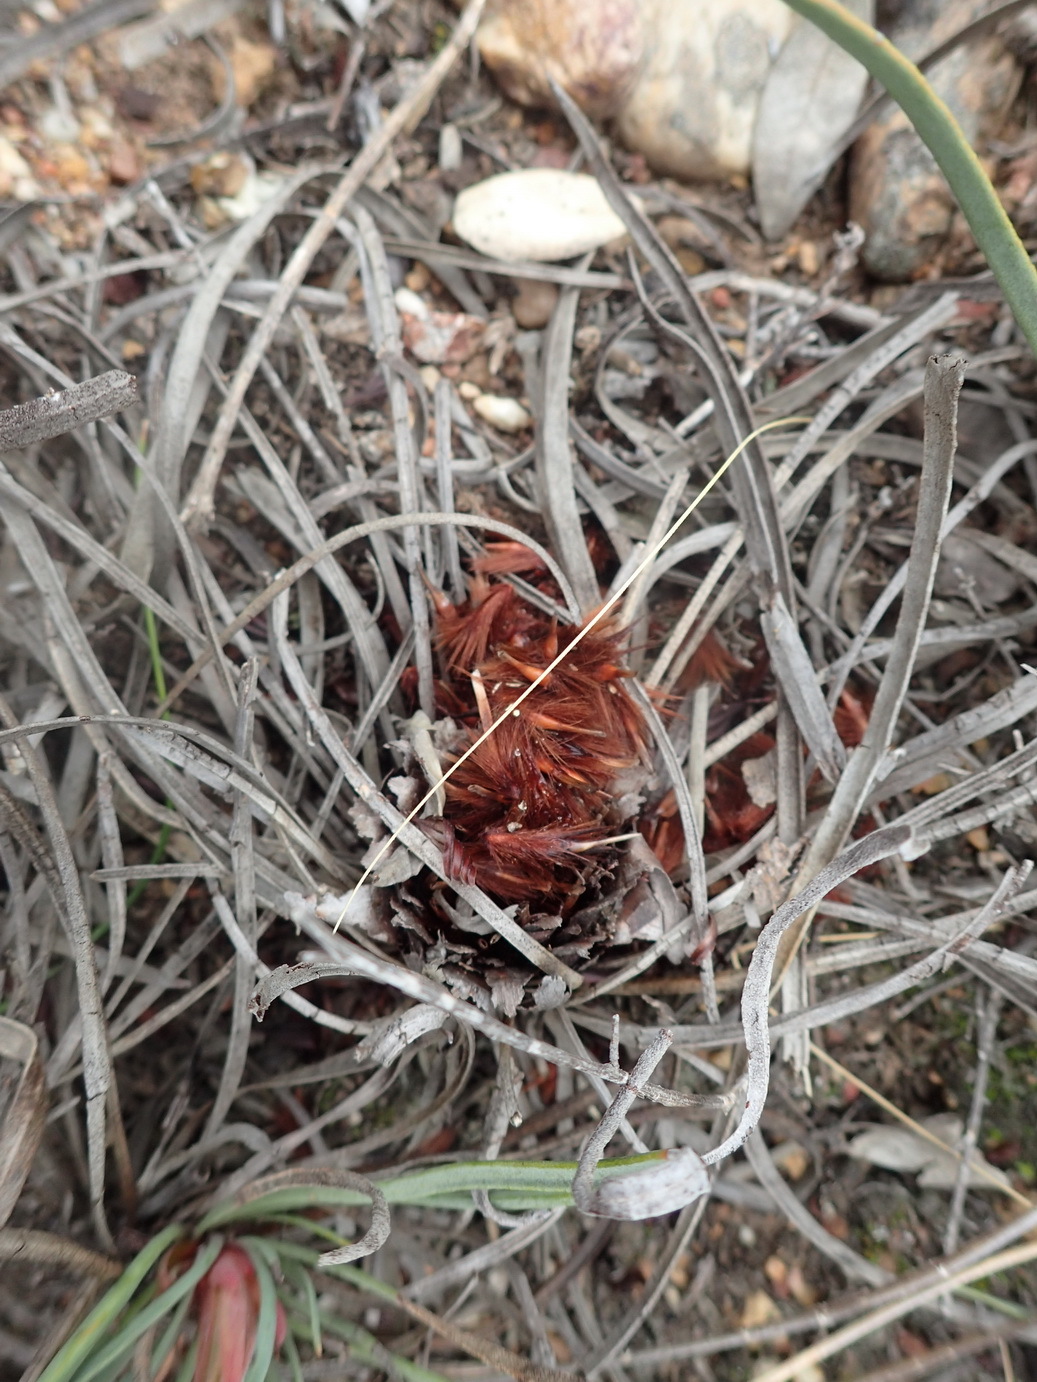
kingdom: Plantae
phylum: Tracheophyta
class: Magnoliopsida
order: Proteales
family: Proteaceae
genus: Protea
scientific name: Protea tenax
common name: Tenacious sugarbush
